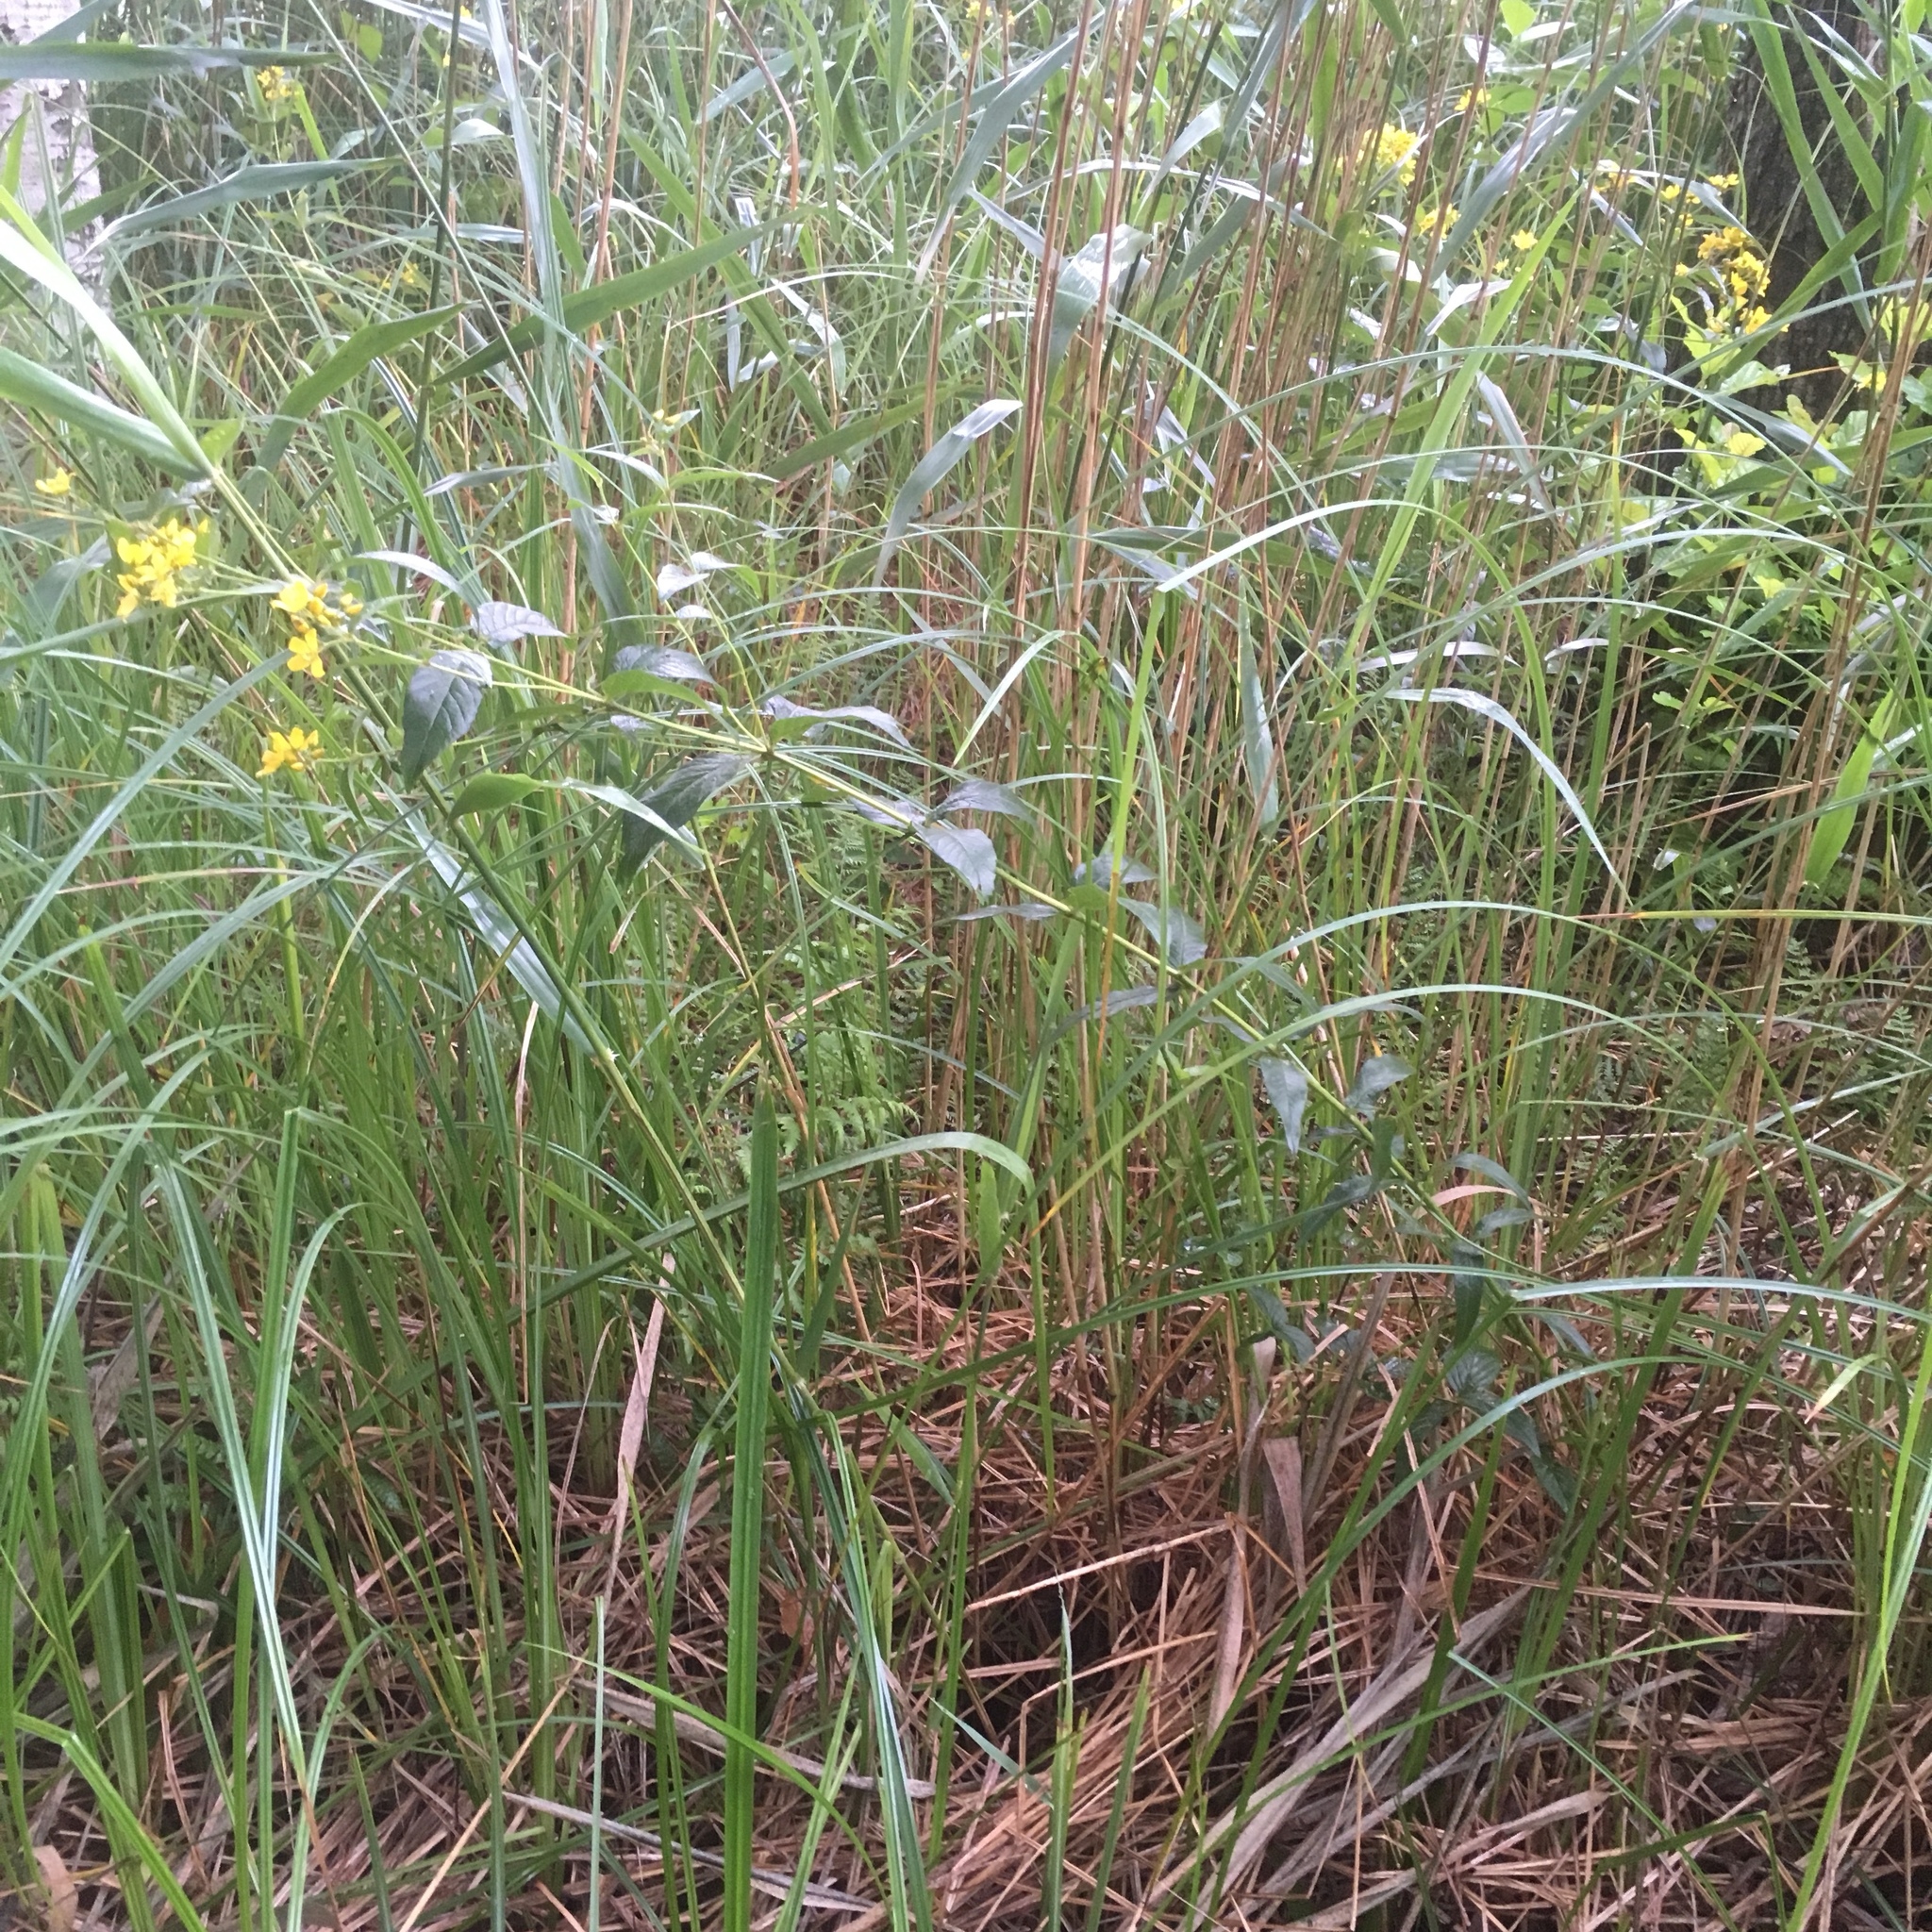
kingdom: Plantae
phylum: Tracheophyta
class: Magnoliopsida
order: Ericales
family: Primulaceae
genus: Lysimachia
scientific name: Lysimachia vulgaris
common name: Yellow loosestrife
